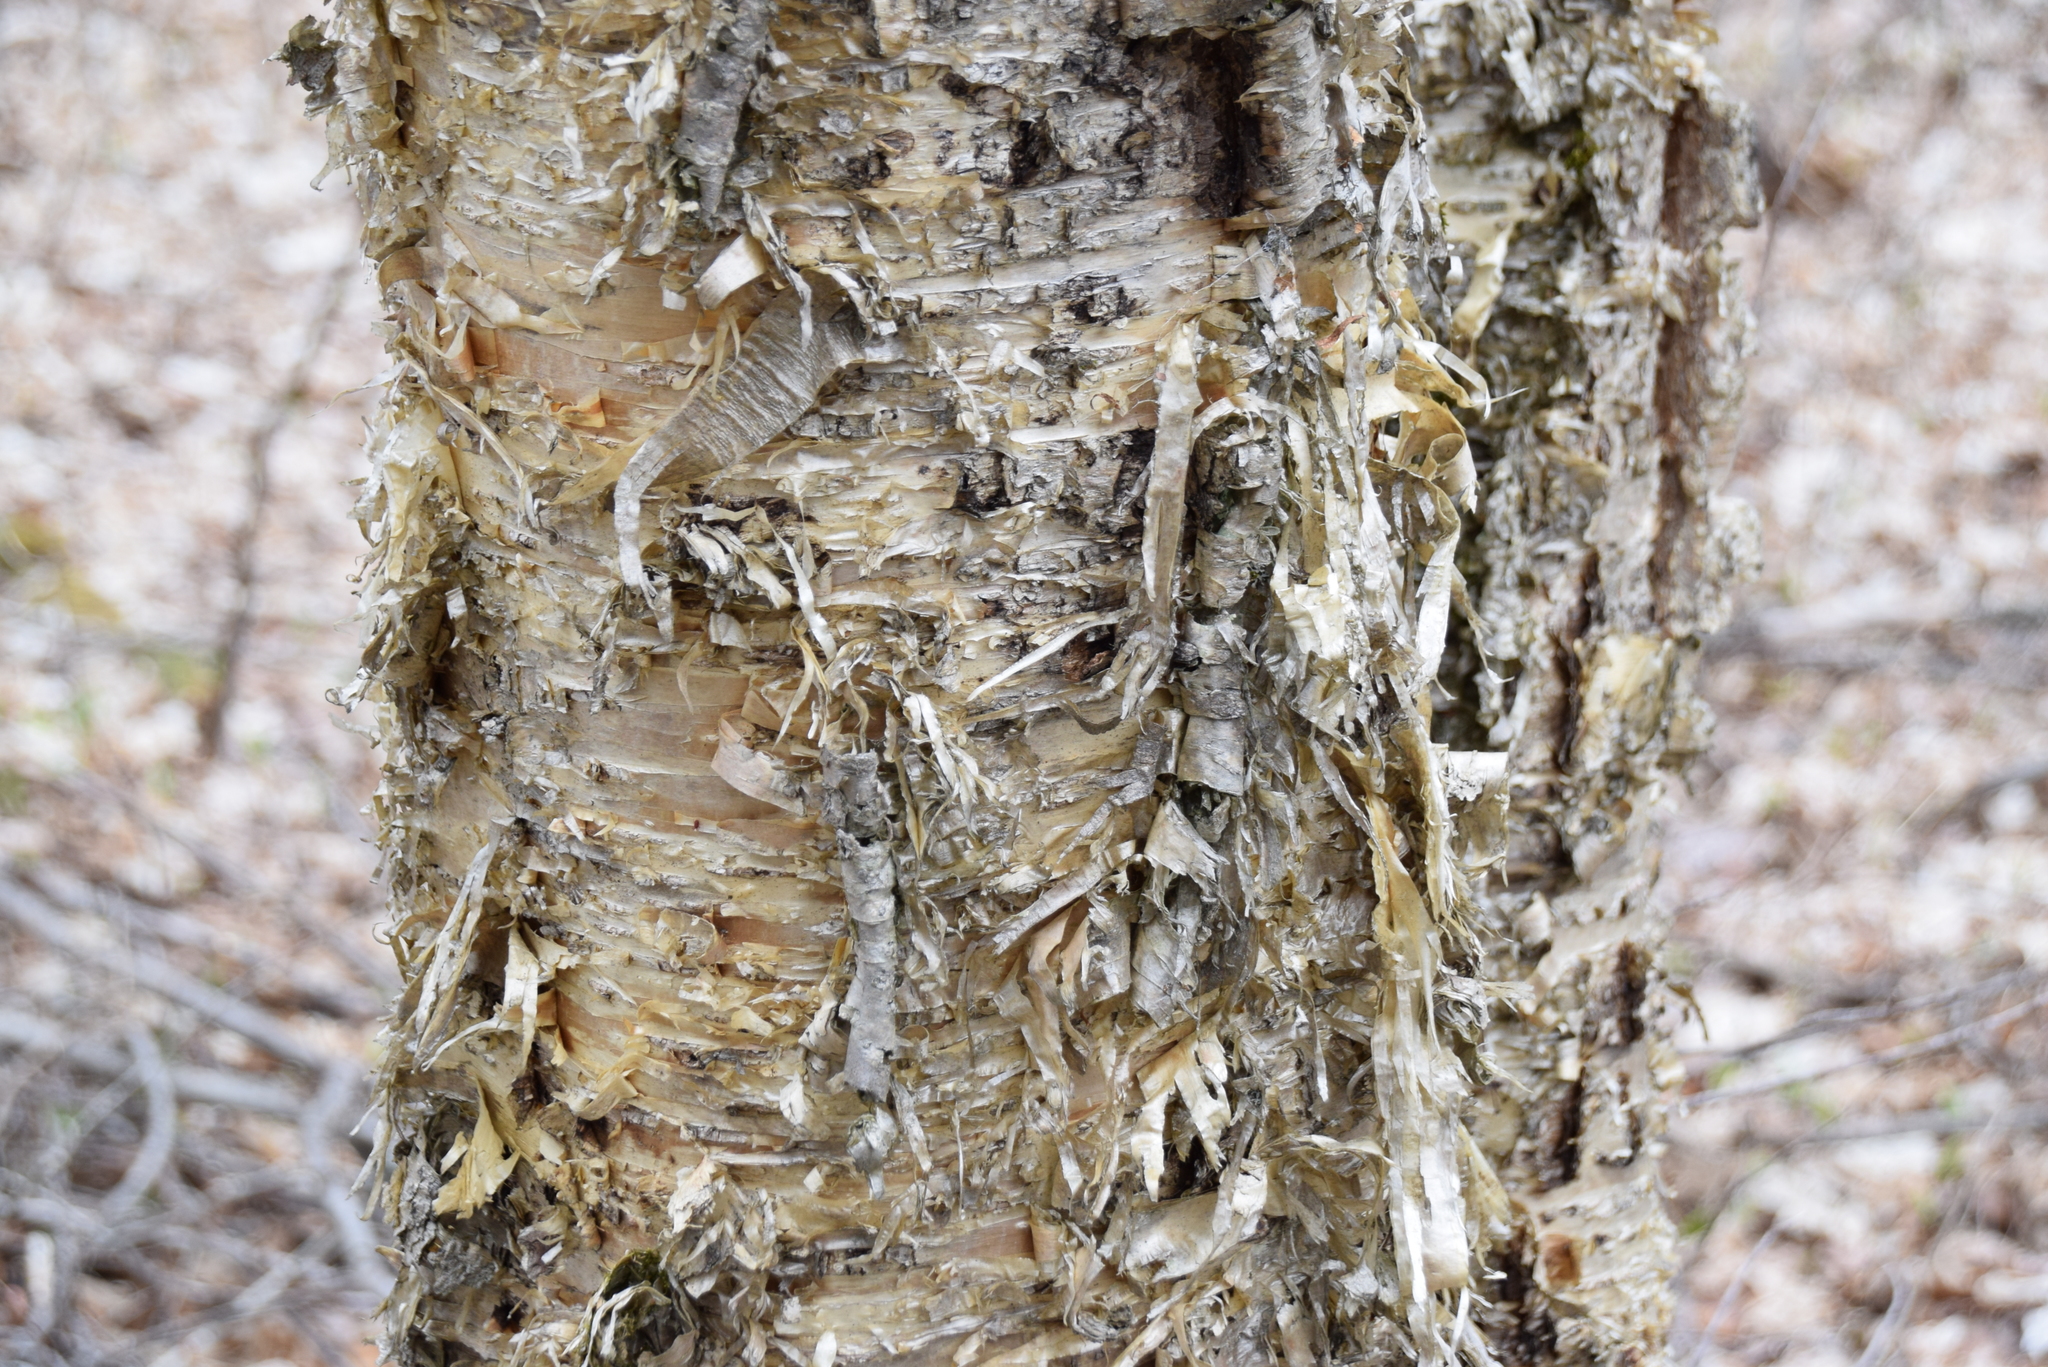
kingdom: Plantae
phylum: Tracheophyta
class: Magnoliopsida
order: Fagales
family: Betulaceae
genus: Betula
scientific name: Betula alleghaniensis
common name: Yellow birch
